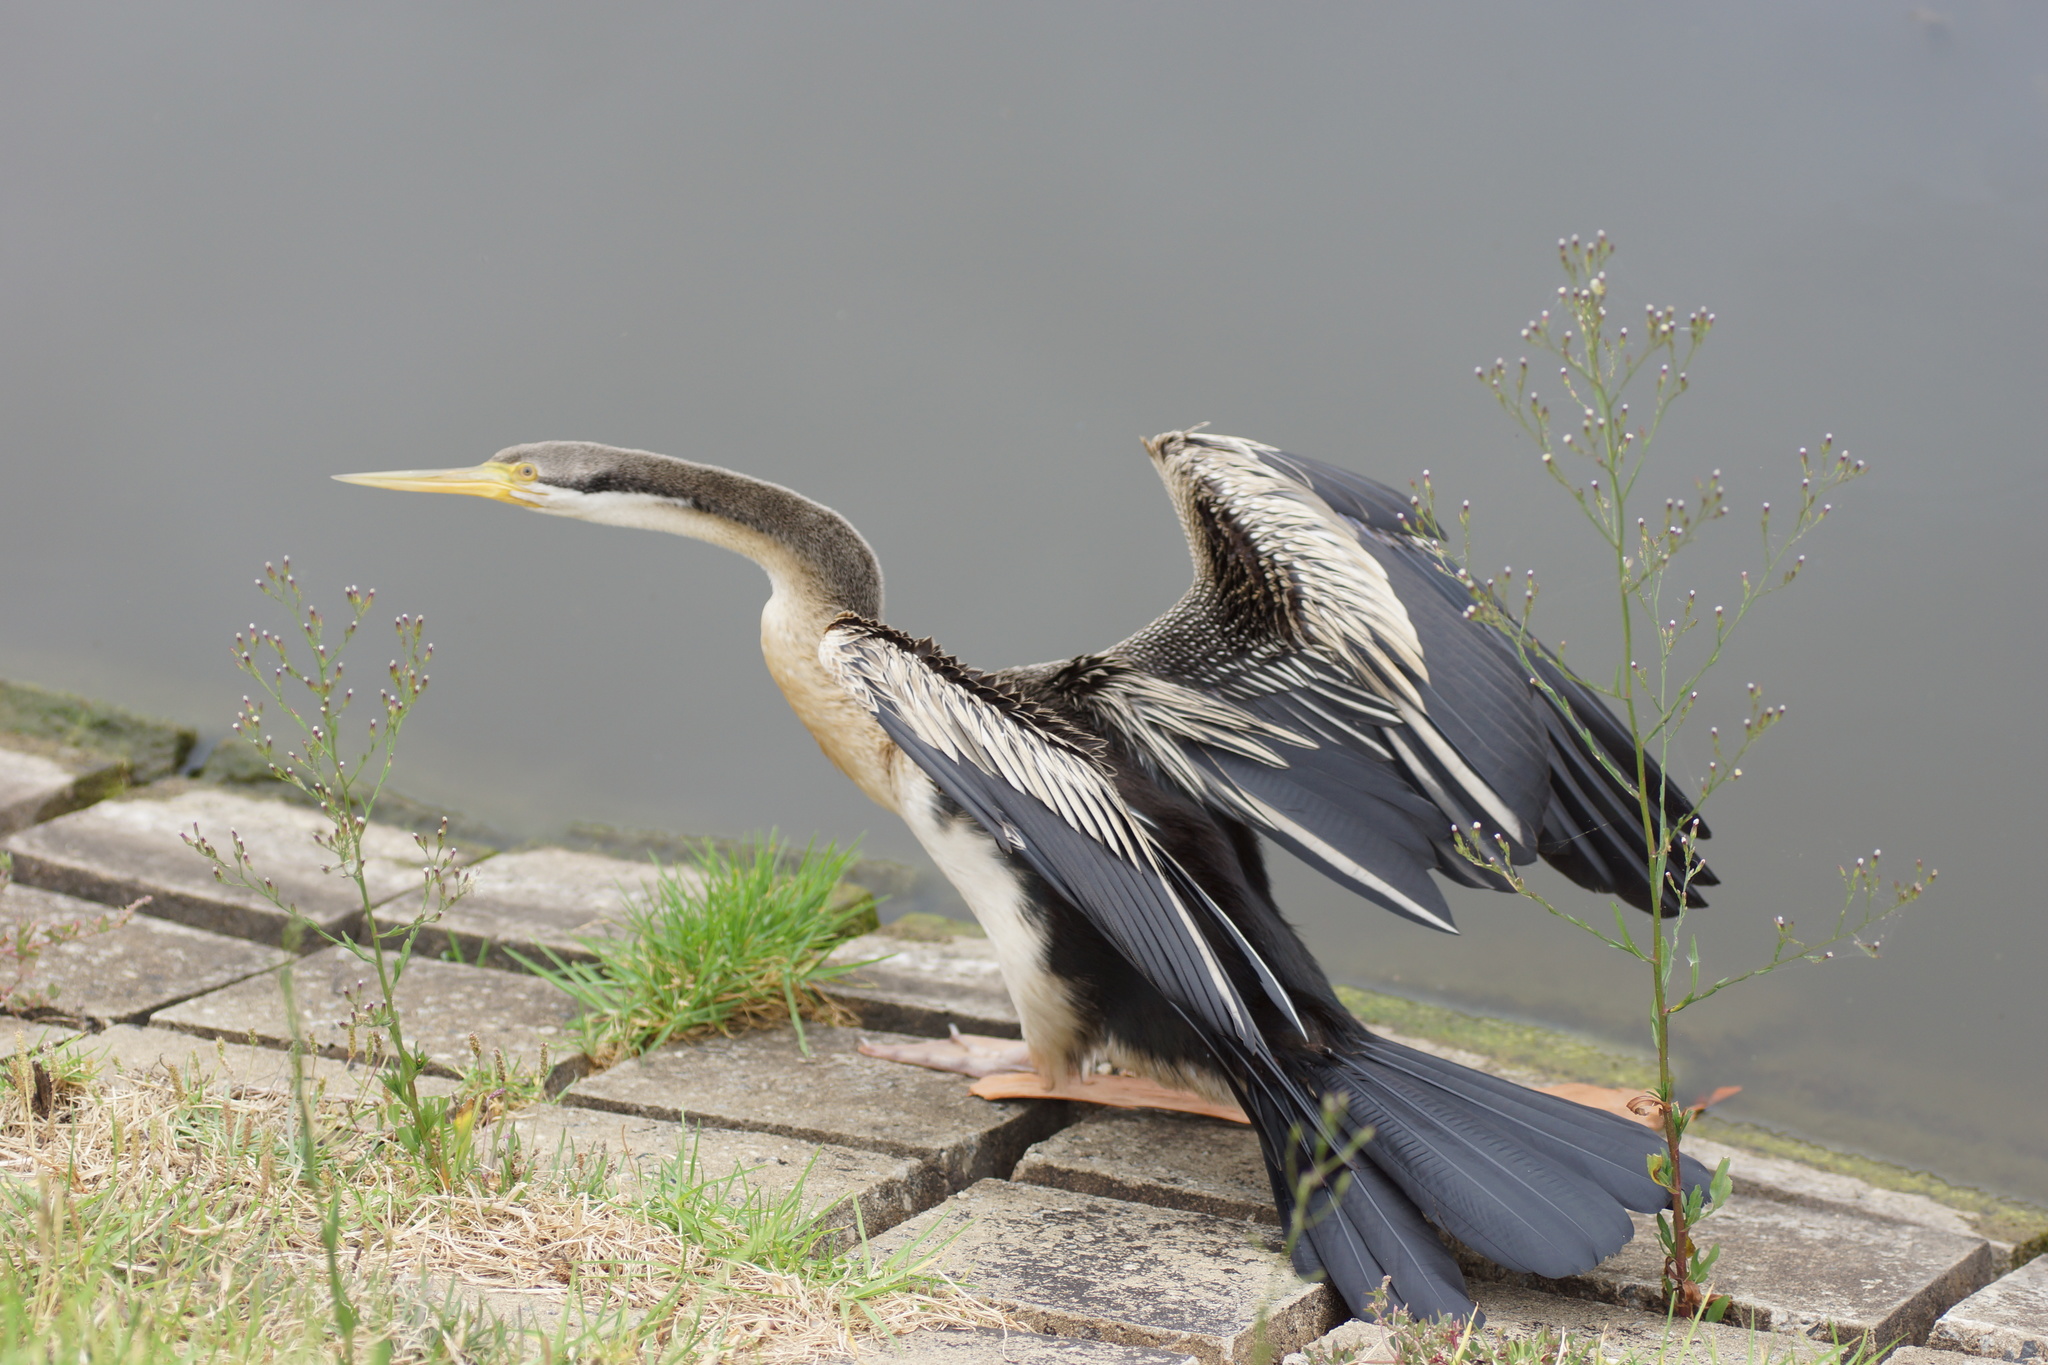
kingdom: Animalia
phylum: Chordata
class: Aves
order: Suliformes
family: Anhingidae
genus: Anhinga
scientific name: Anhinga novaehollandiae
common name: Australasian darter
